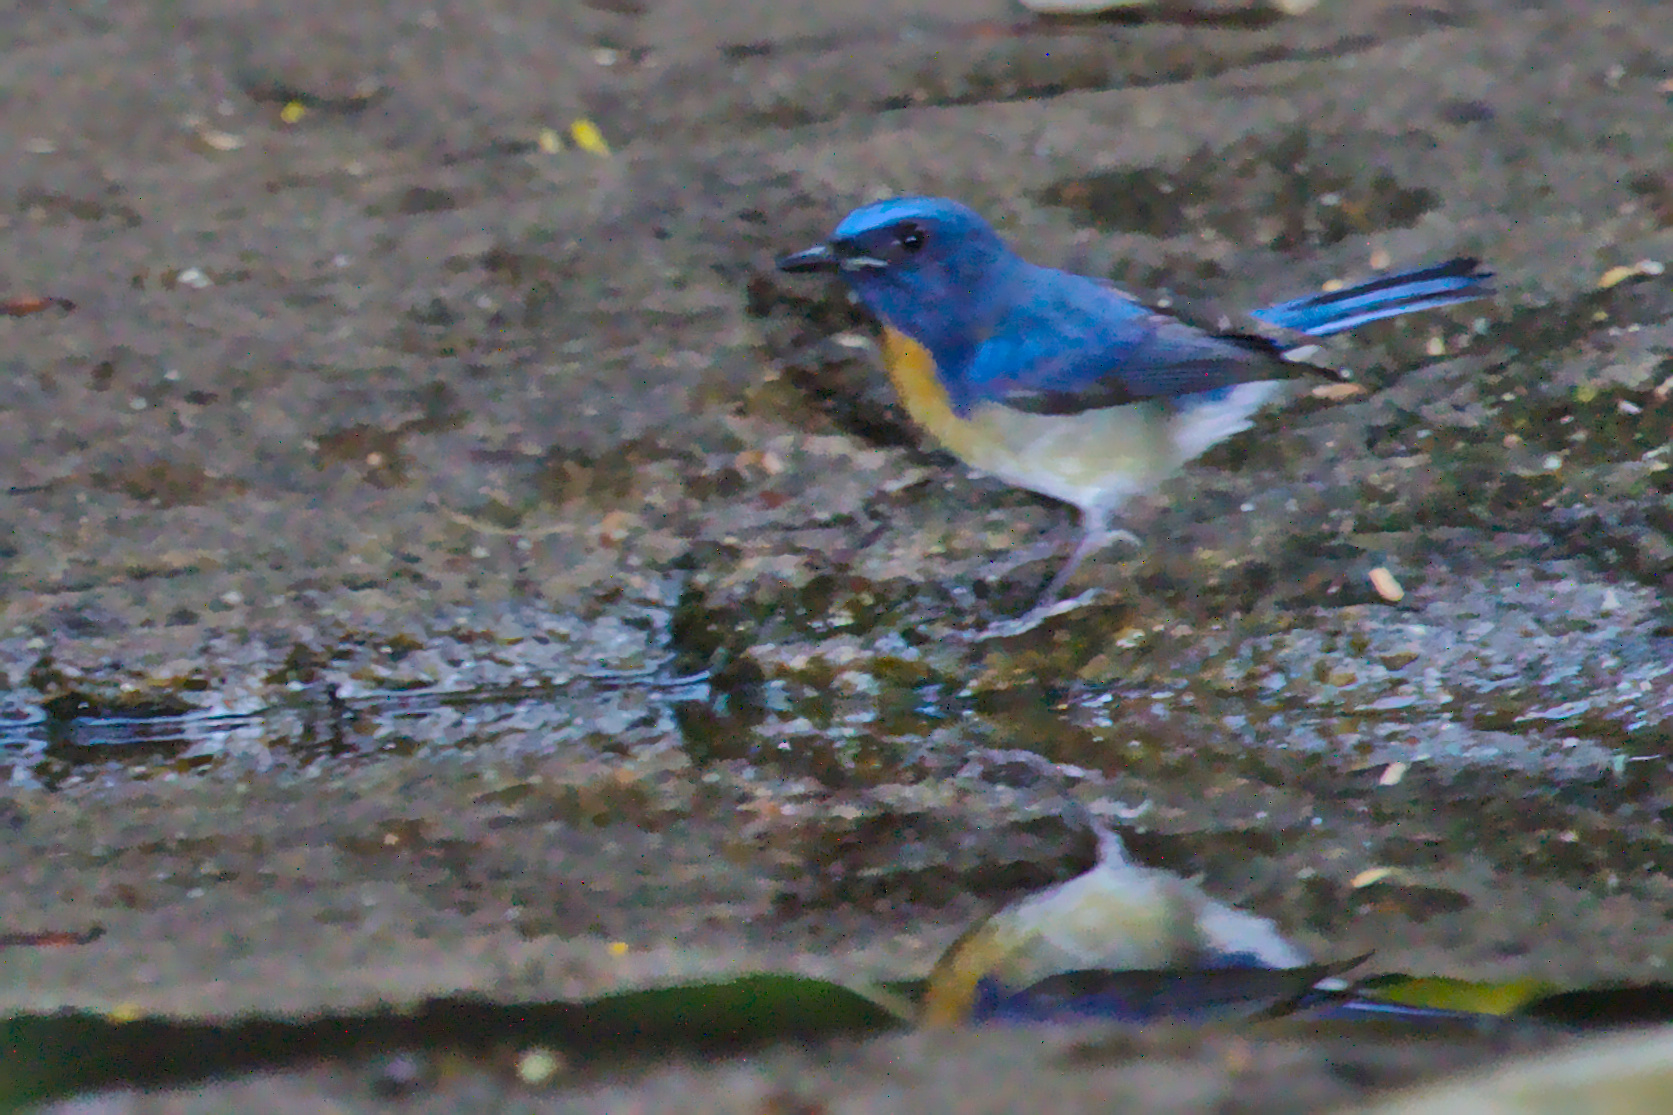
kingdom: Animalia
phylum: Chordata
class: Aves
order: Passeriformes
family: Muscicapidae
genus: Cyornis
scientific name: Cyornis rubeculoides
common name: Blue-throated blue flycatcher
